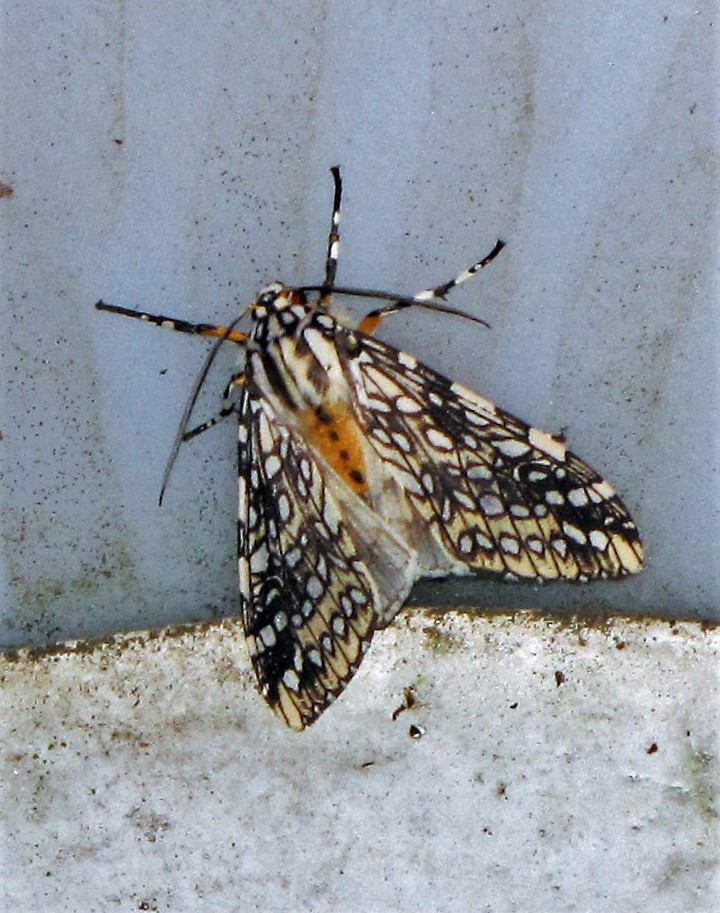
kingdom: Animalia
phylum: Arthropoda
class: Insecta
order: Lepidoptera
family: Erebidae
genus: Lophocampa
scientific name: Lophocampa dinora
